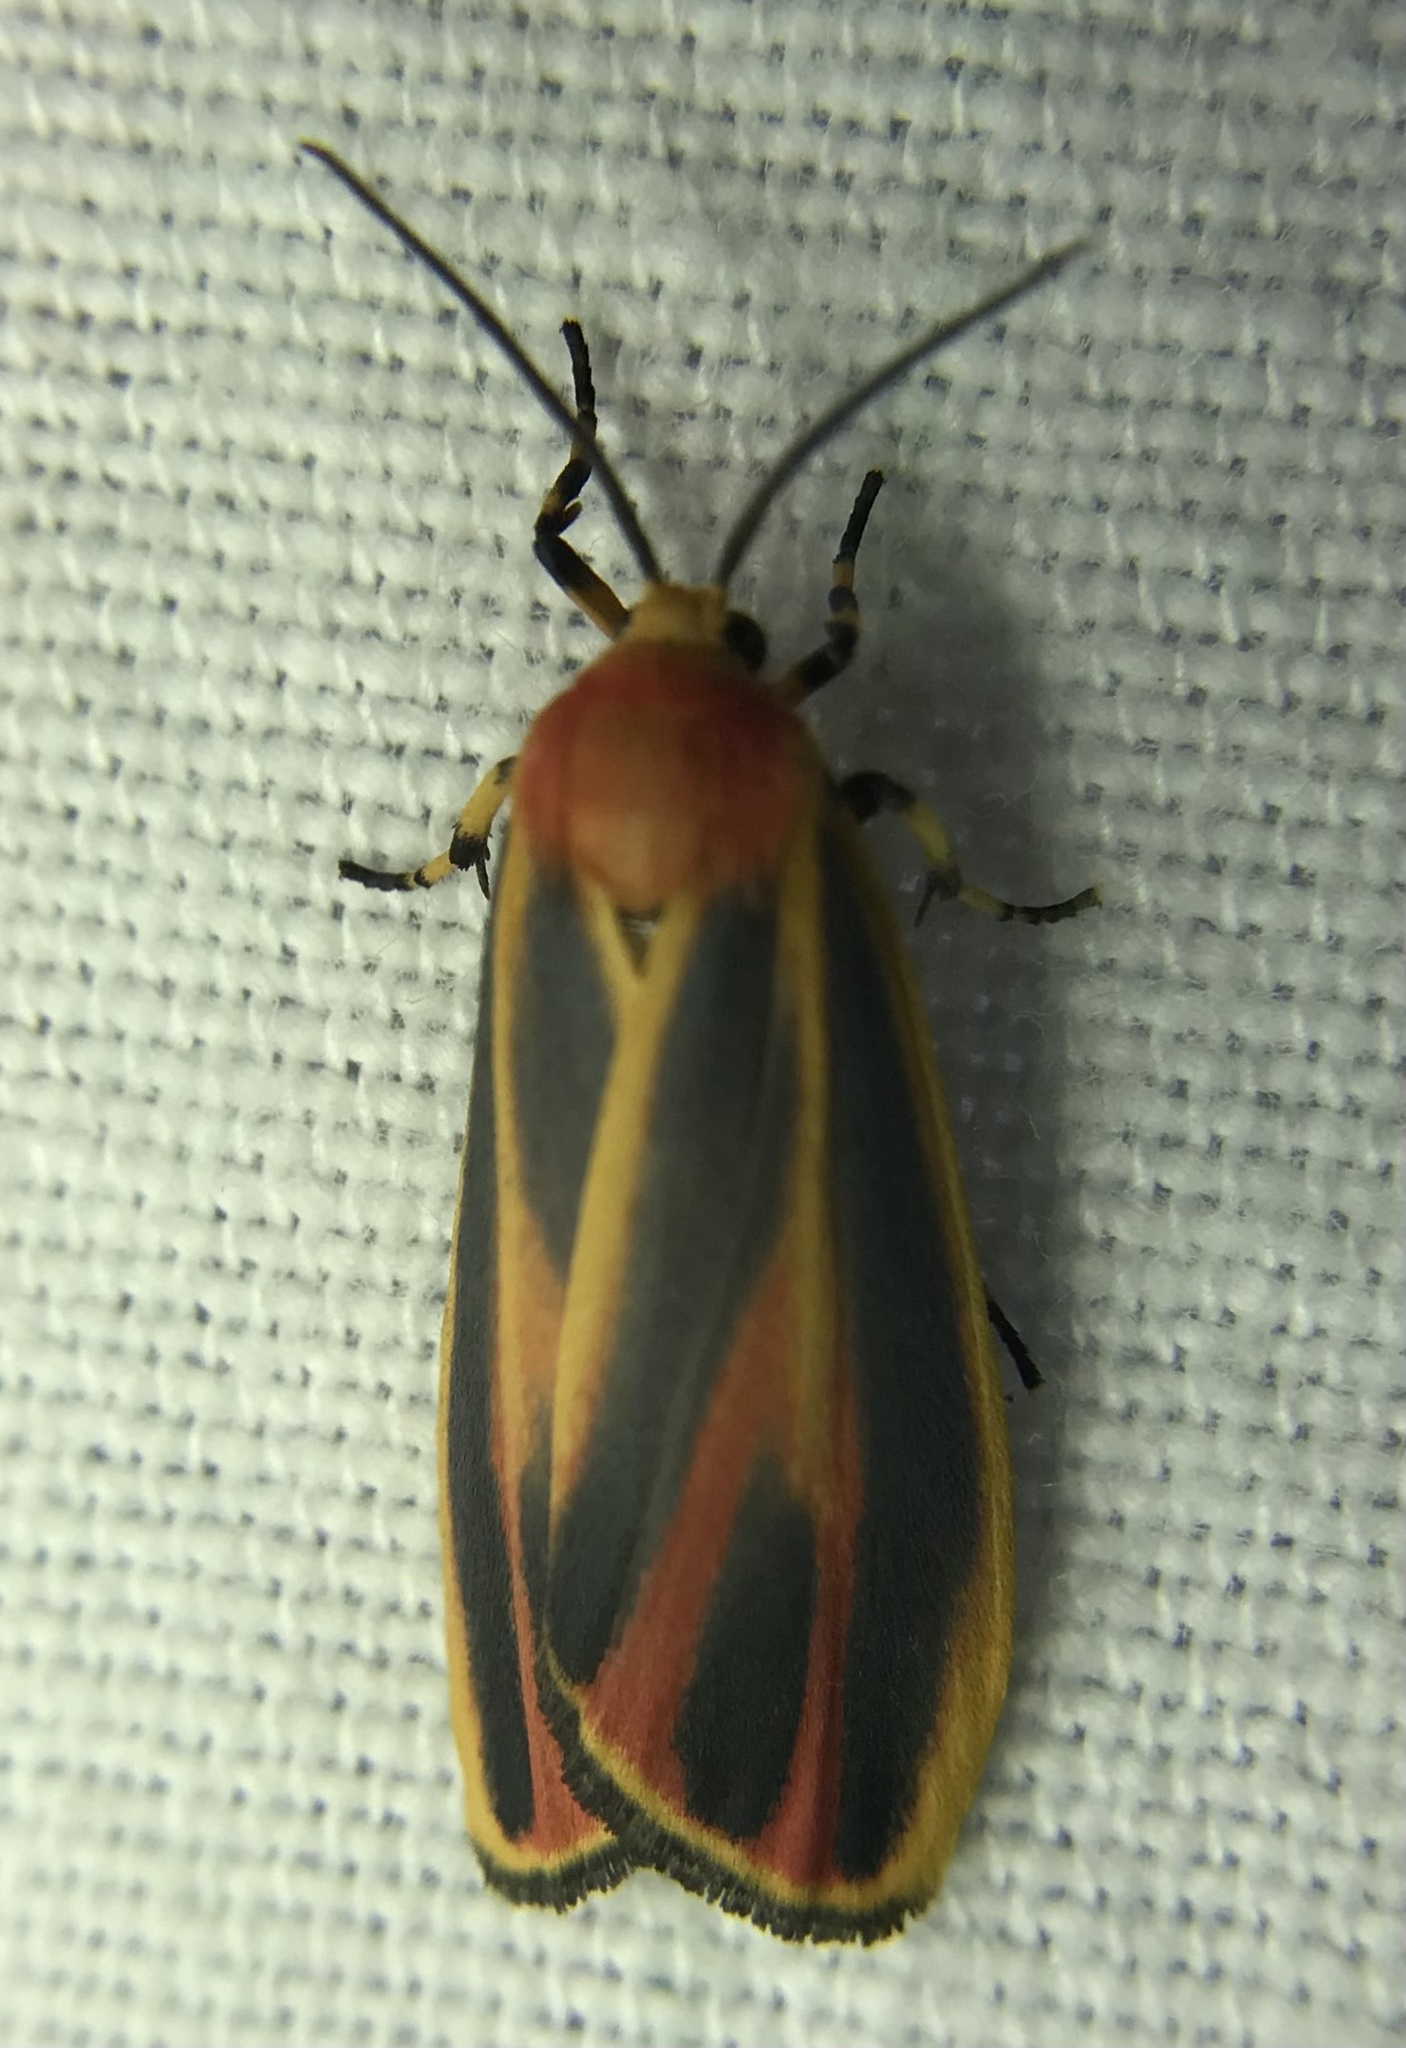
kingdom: Animalia
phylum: Arthropoda
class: Insecta
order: Lepidoptera
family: Erebidae
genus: Hypoprepia
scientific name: Hypoprepia fucosa
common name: Painted lichen moth
